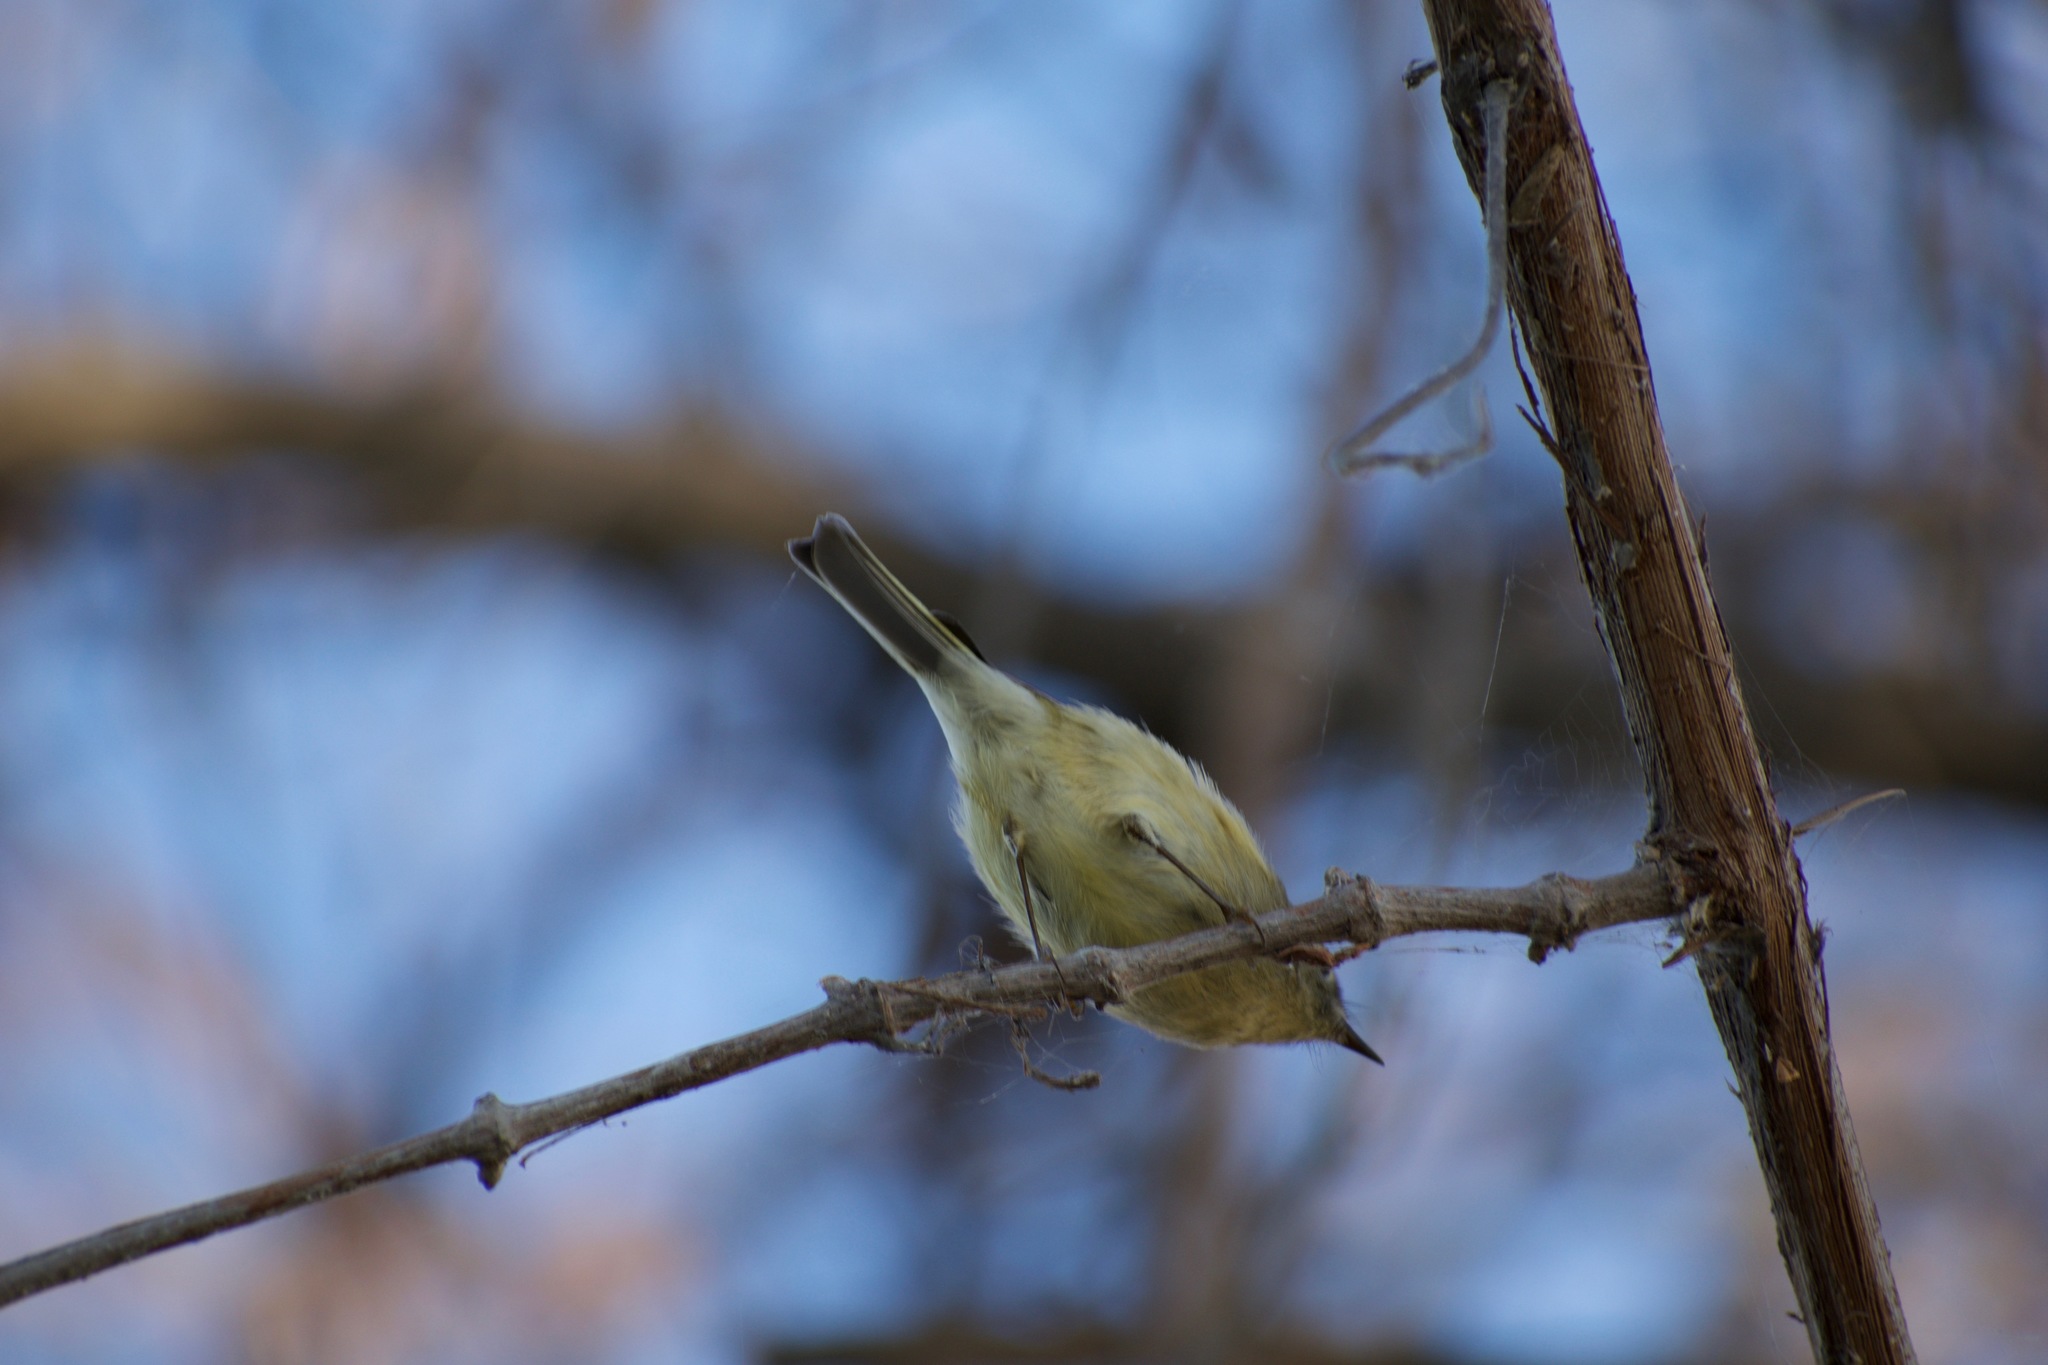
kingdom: Animalia
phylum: Chordata
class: Aves
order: Passeriformes
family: Regulidae
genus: Regulus
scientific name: Regulus calendula
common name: Ruby-crowned kinglet
